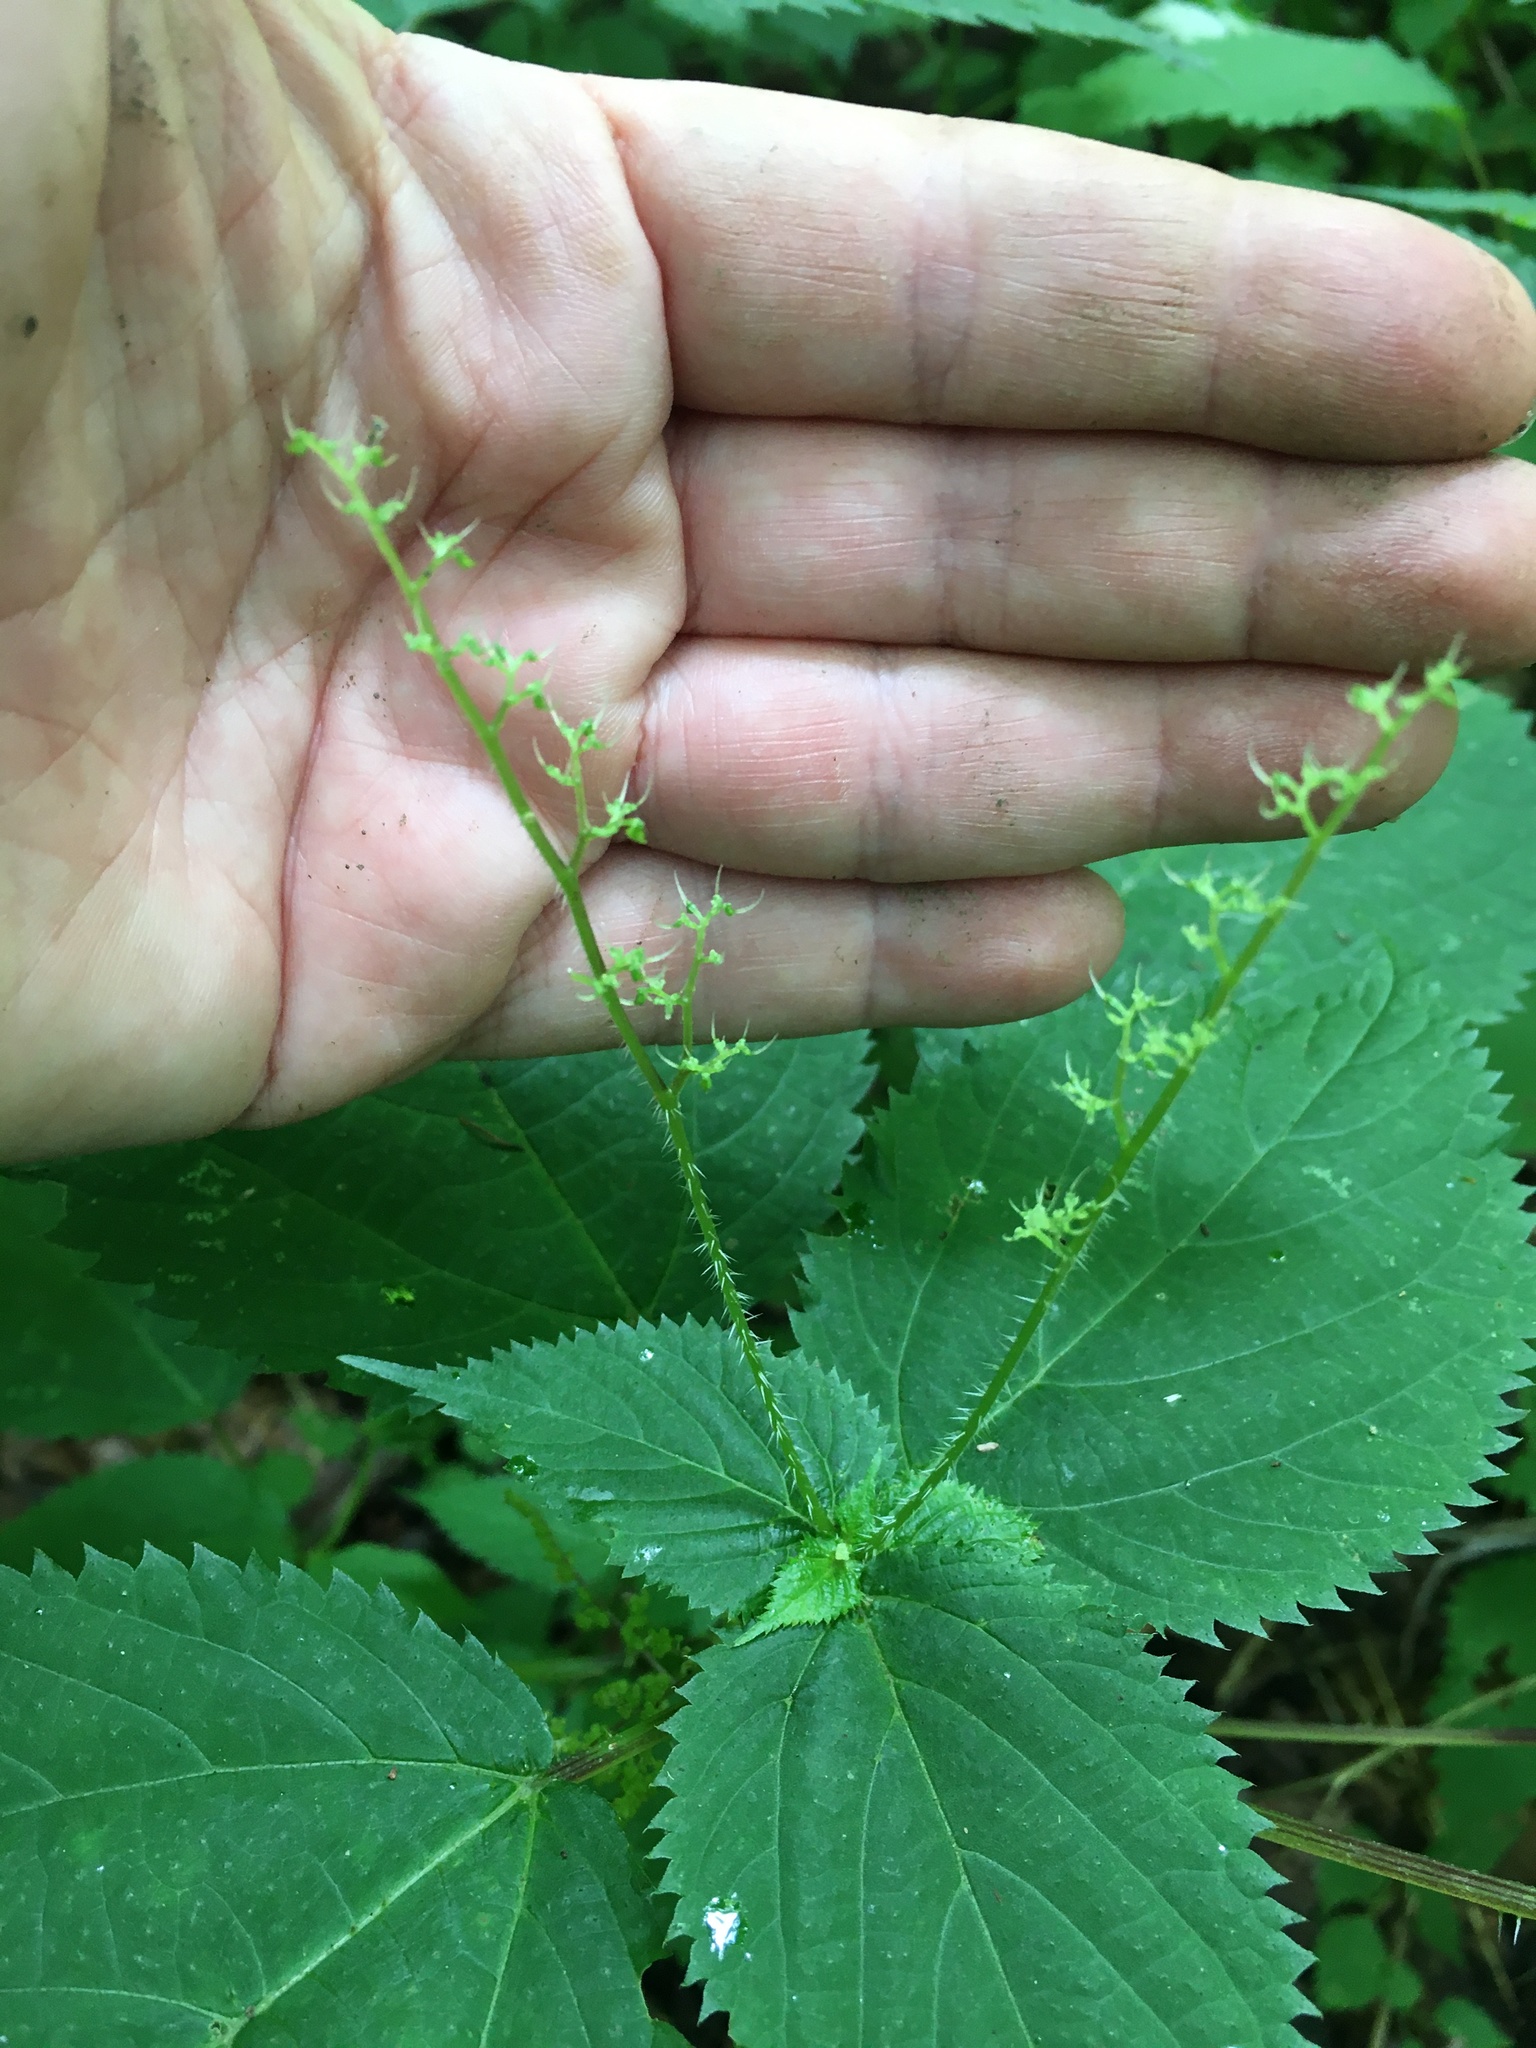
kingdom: Plantae
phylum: Tracheophyta
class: Magnoliopsida
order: Rosales
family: Urticaceae
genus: Laportea
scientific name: Laportea canadensis
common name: Canada nettle
